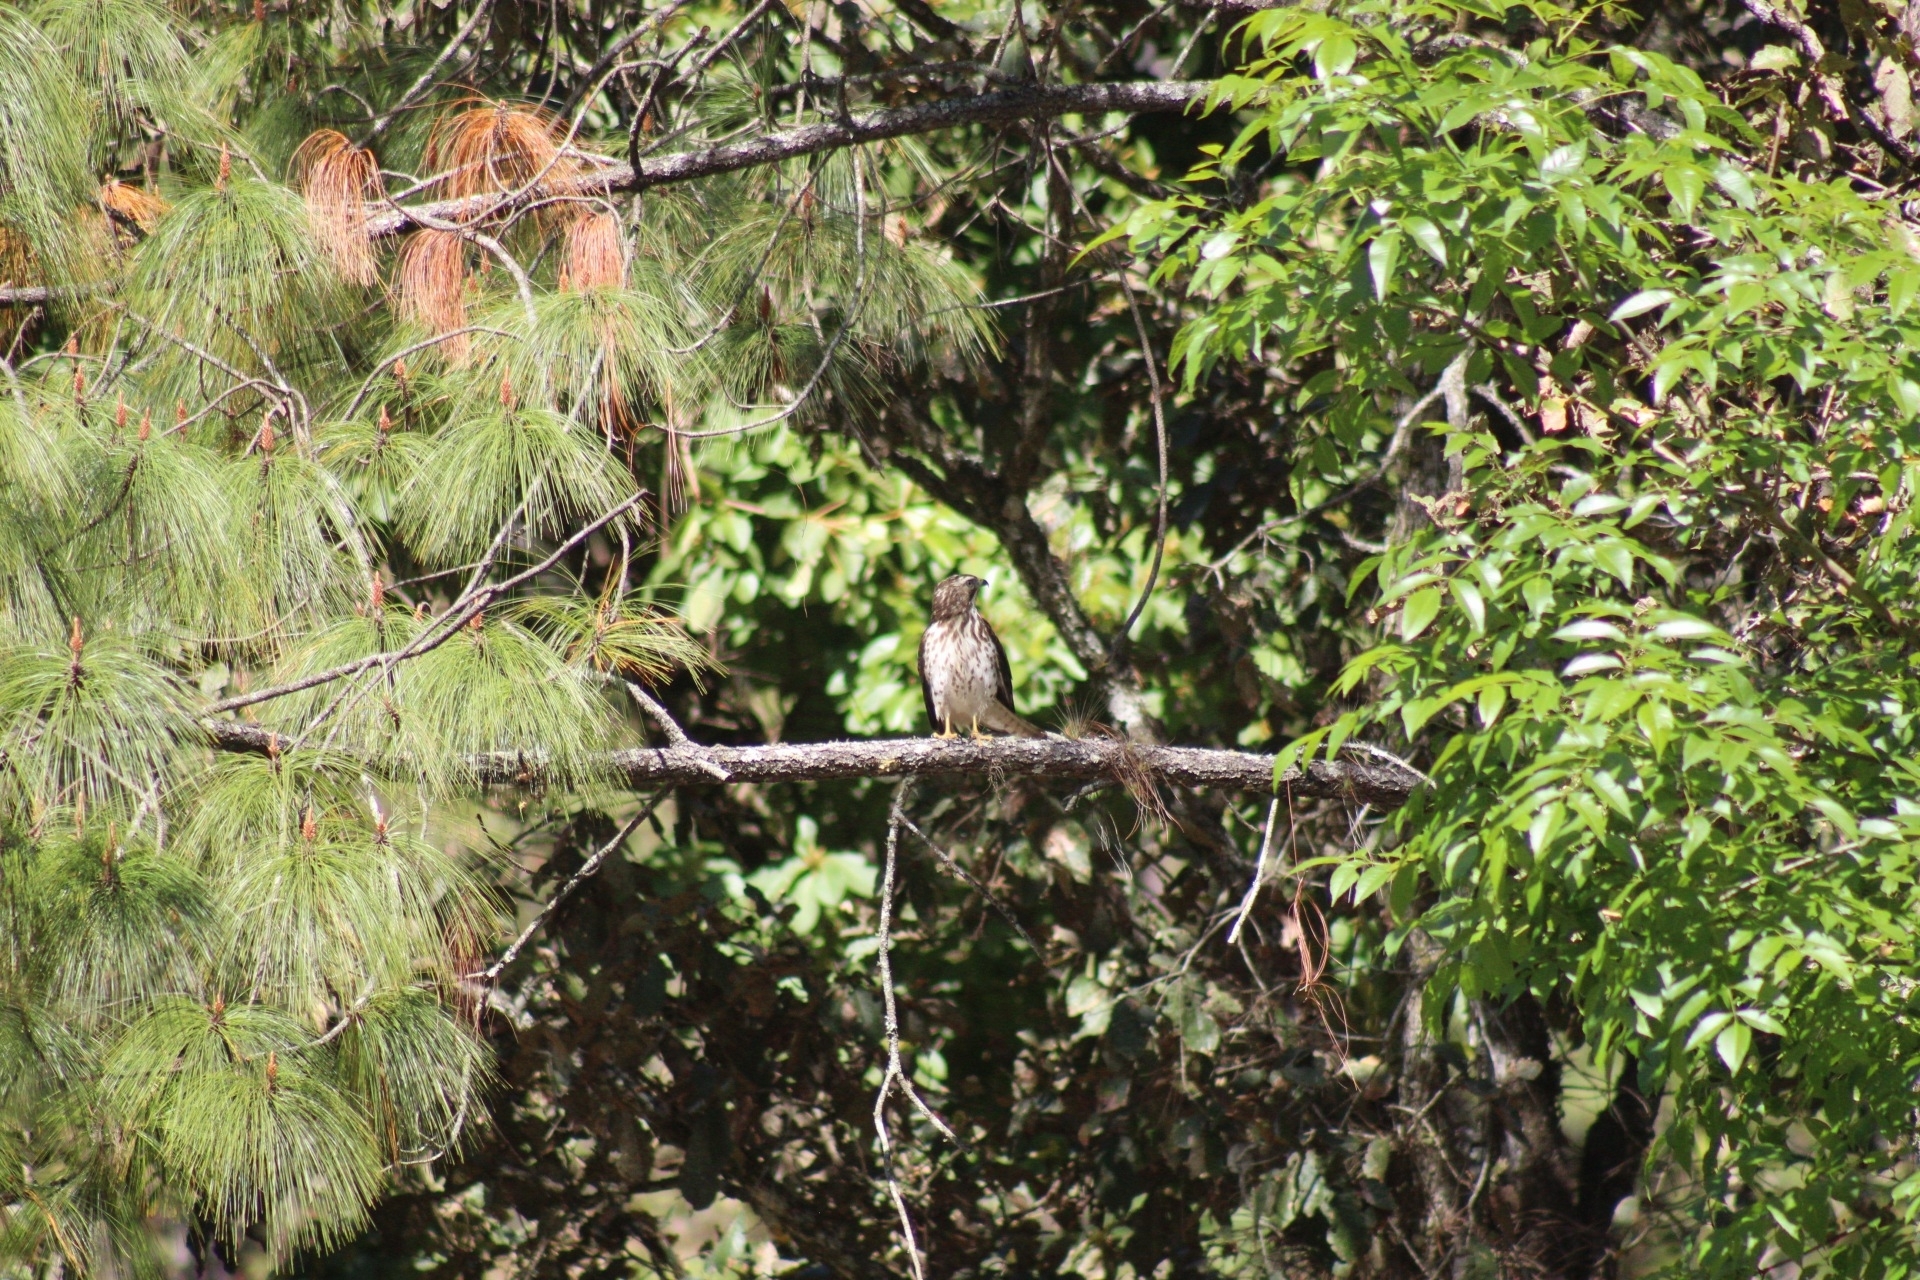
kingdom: Animalia
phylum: Chordata
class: Aves
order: Accipitriformes
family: Accipitridae
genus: Buteo
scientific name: Buteo platypterus
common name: Broad-winged hawk
